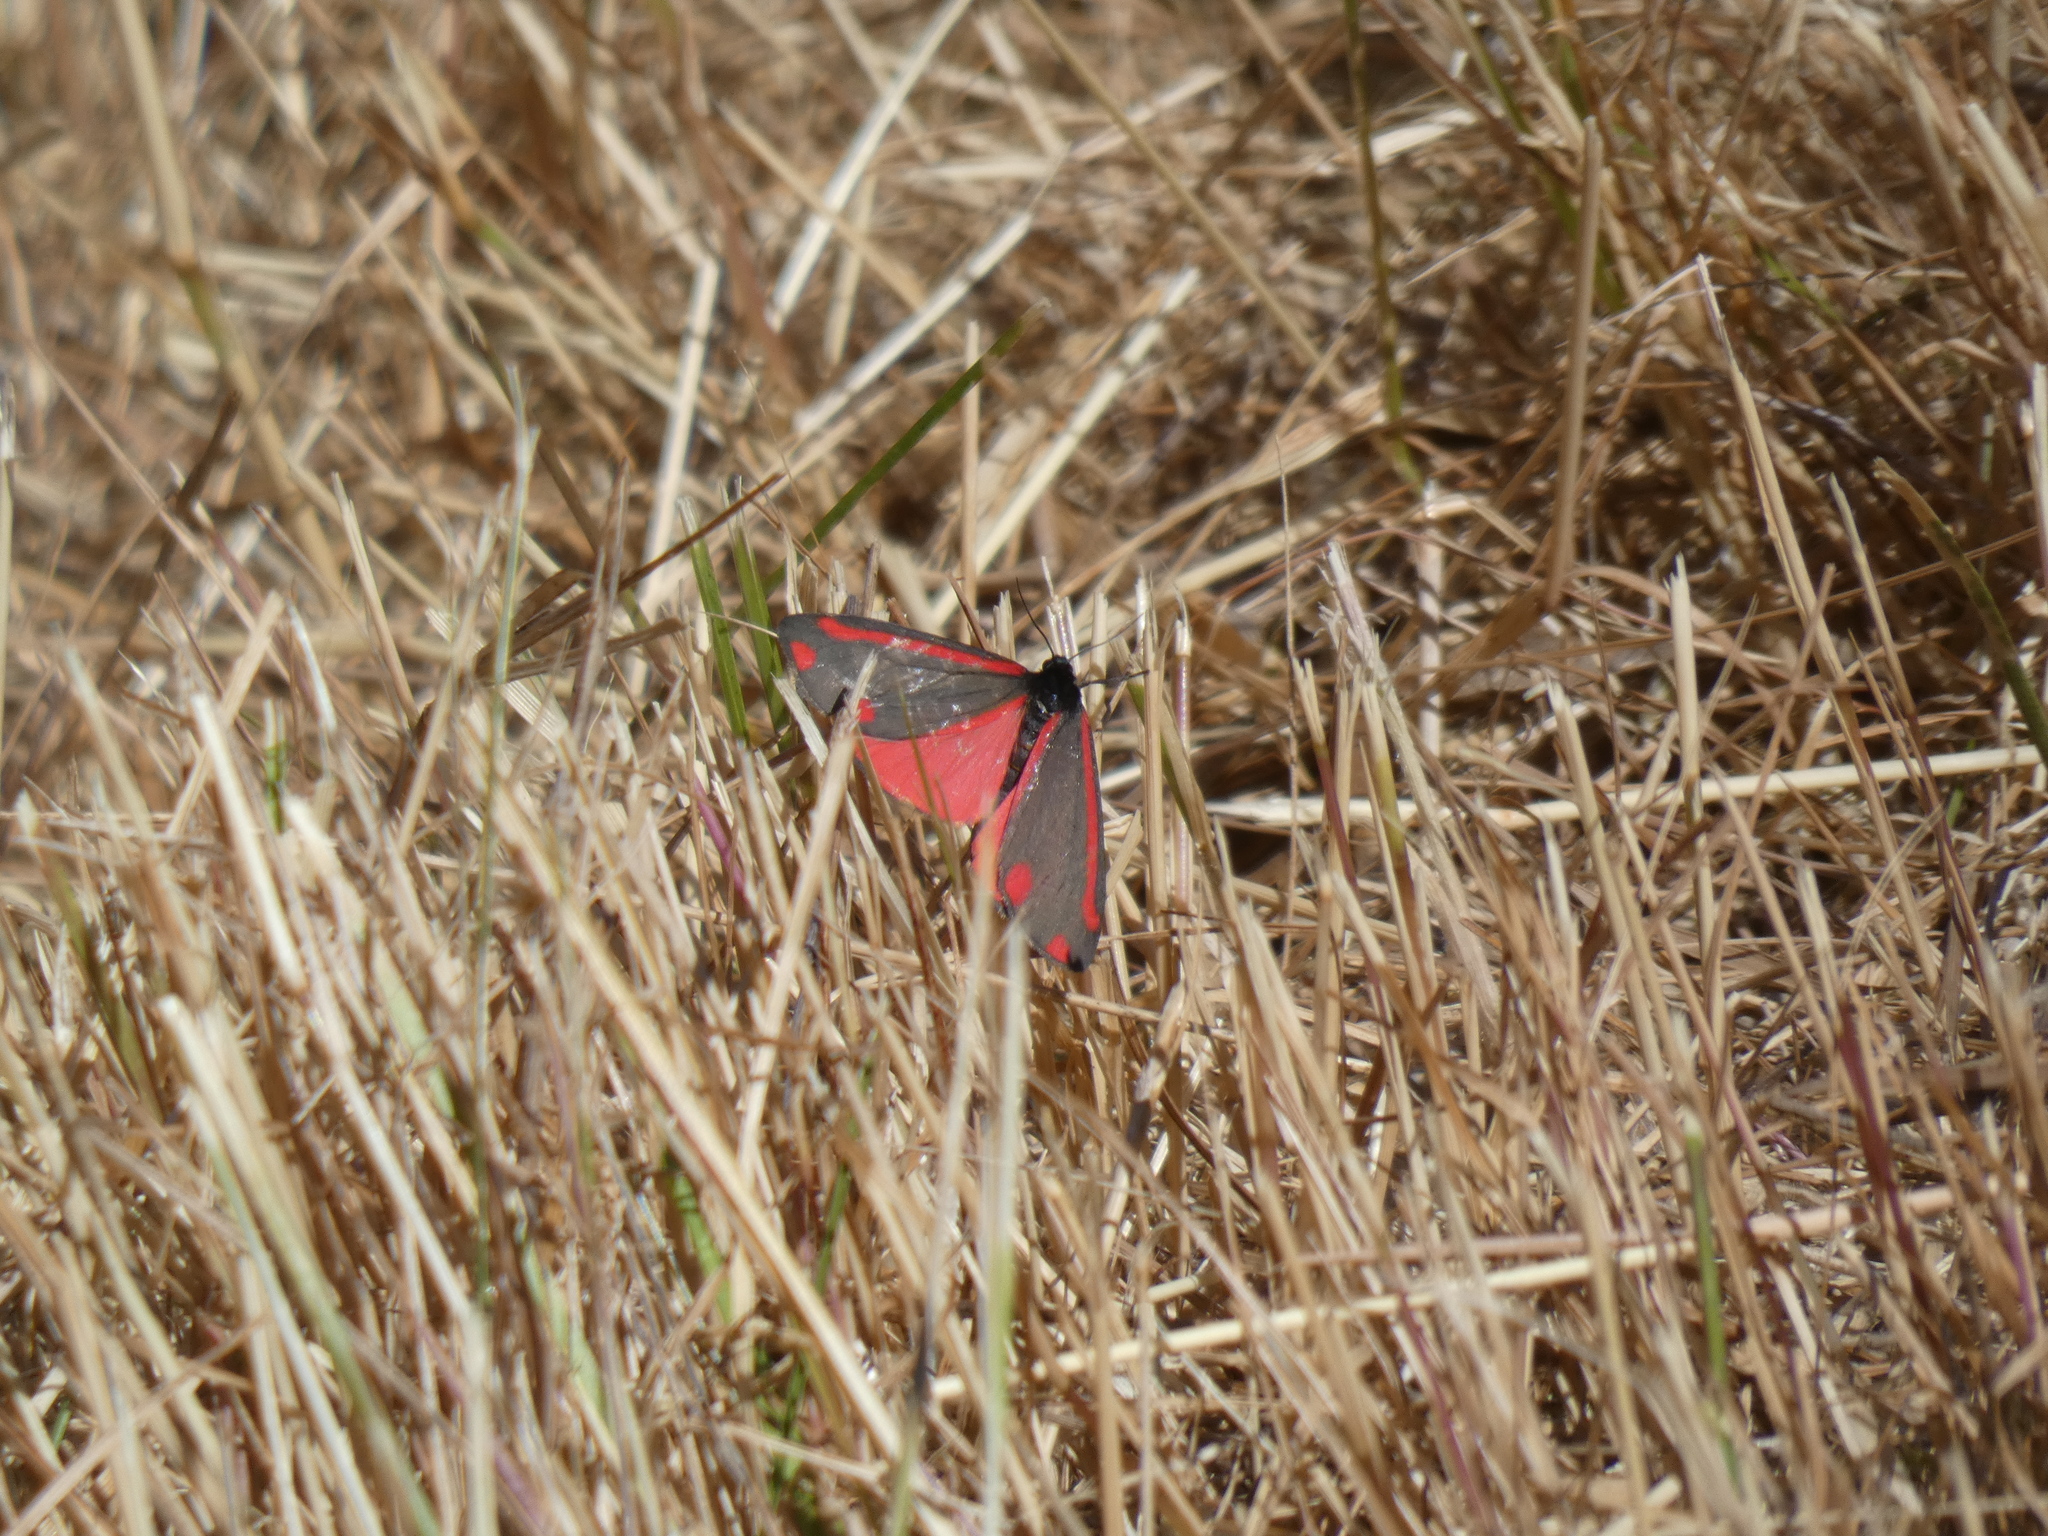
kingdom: Animalia
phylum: Arthropoda
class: Insecta
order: Lepidoptera
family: Erebidae
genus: Tyria
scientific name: Tyria jacobaeae
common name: Cinnabar
